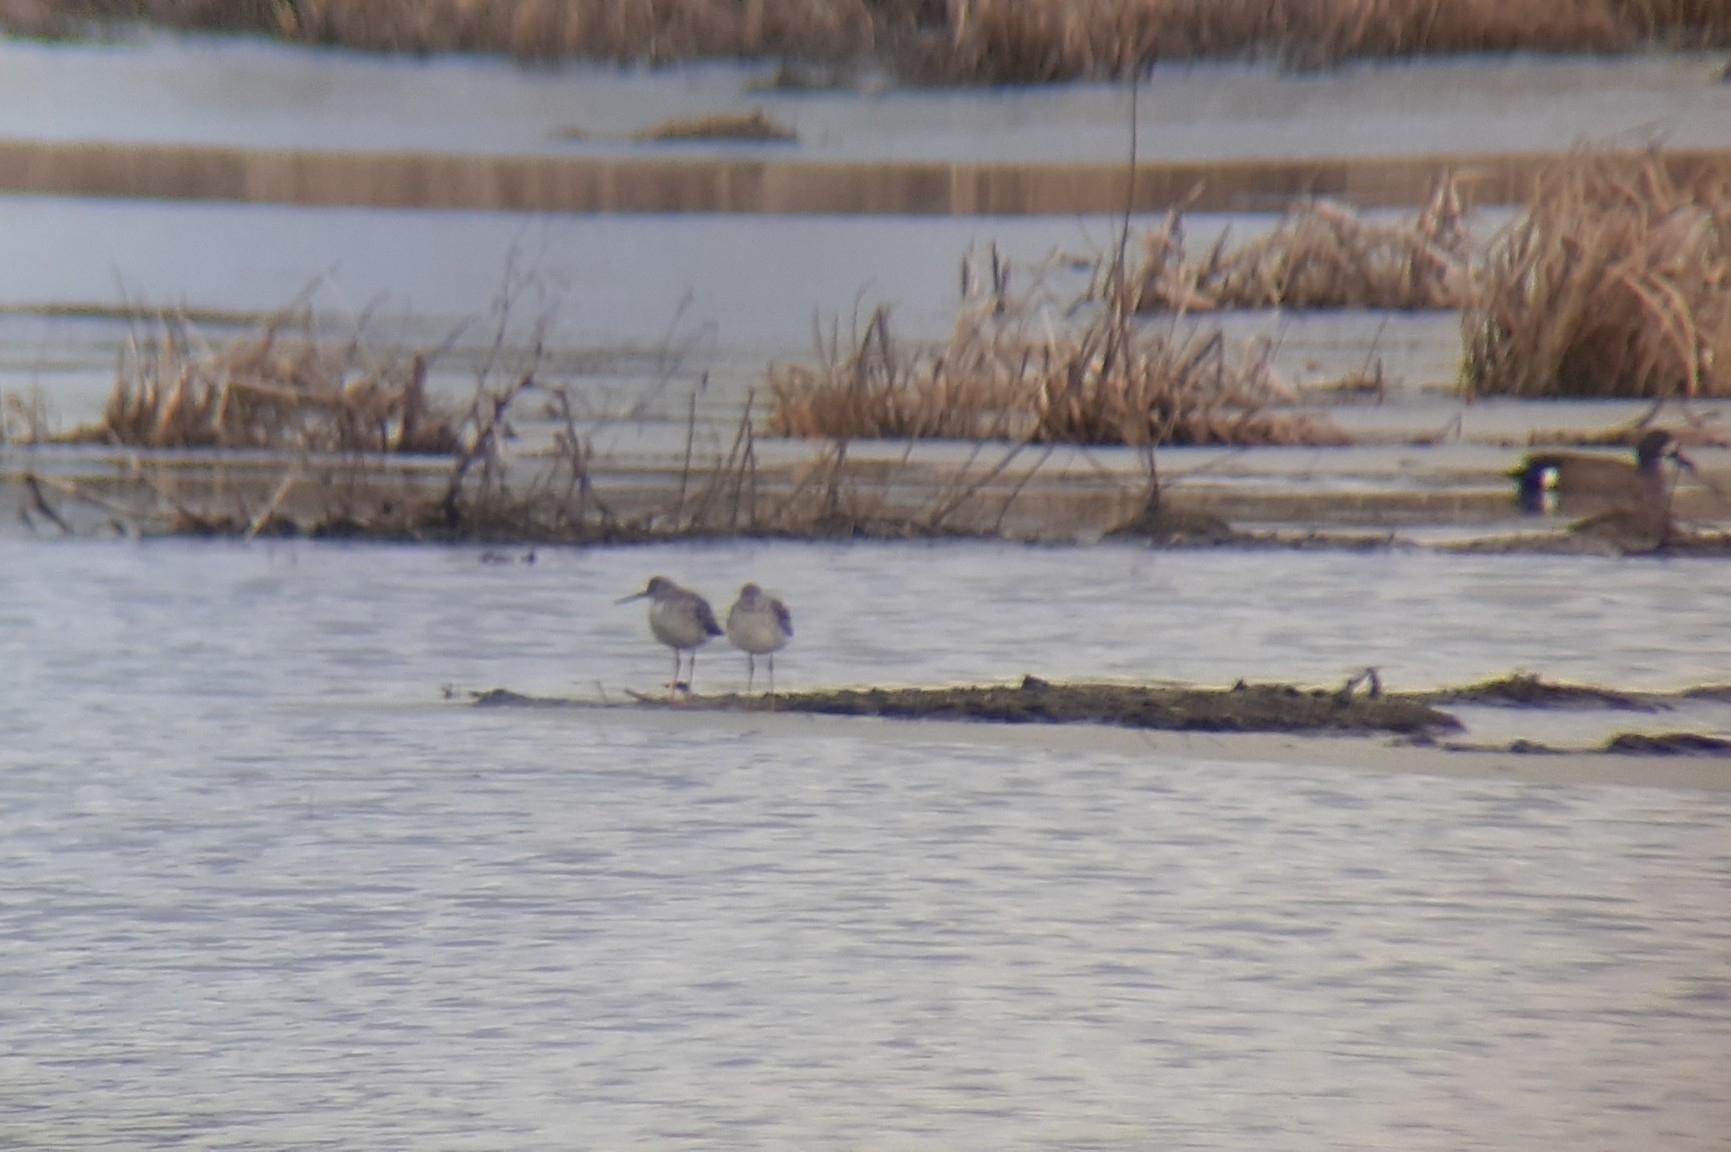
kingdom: Animalia
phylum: Chordata
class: Aves
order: Charadriiformes
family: Scolopacidae
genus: Tringa
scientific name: Tringa melanoleuca
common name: Greater yellowlegs
